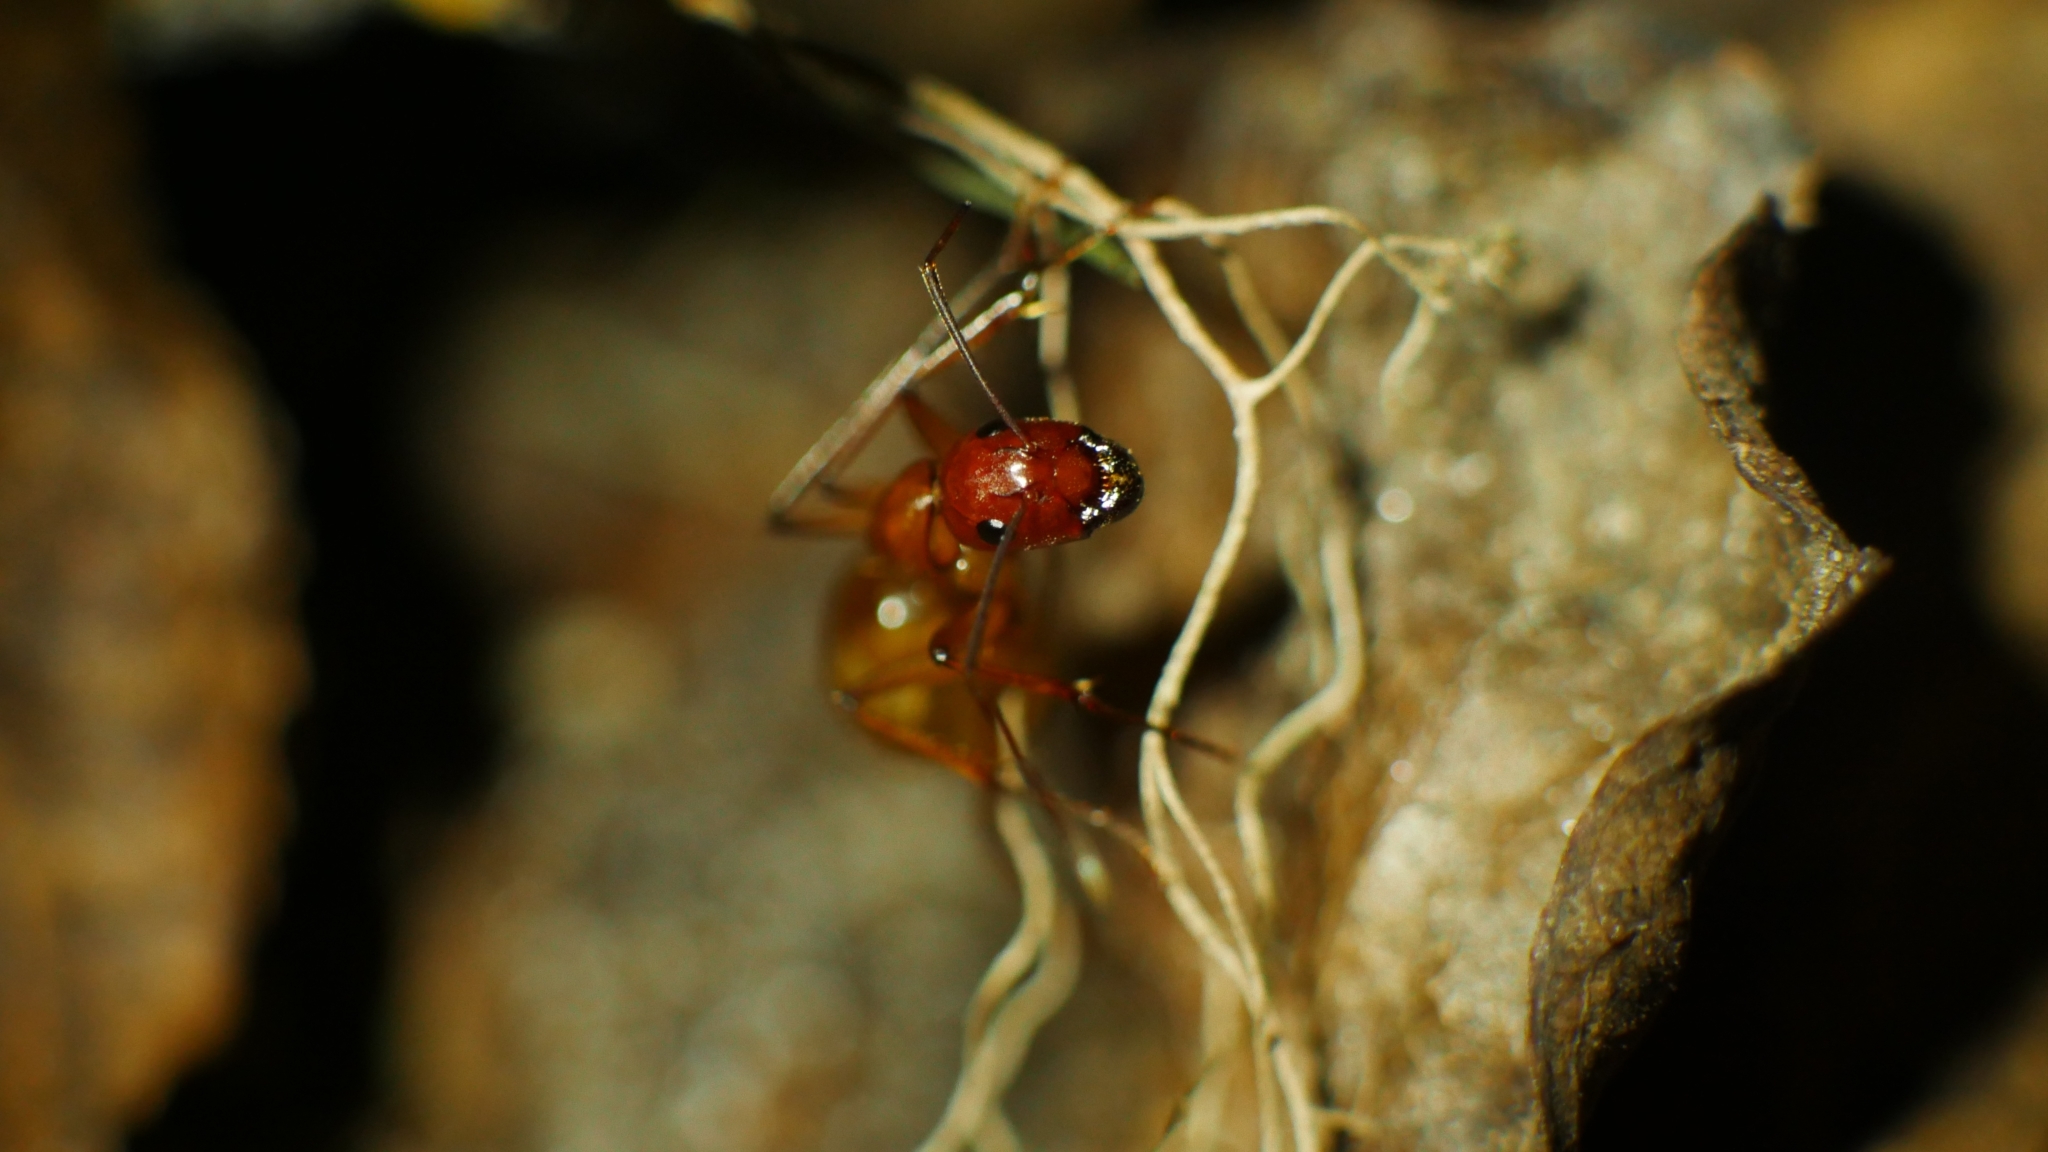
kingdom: Animalia
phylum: Arthropoda
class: Insecta
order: Hymenoptera
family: Formicidae
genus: Camponotus
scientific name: Camponotus castaneus
